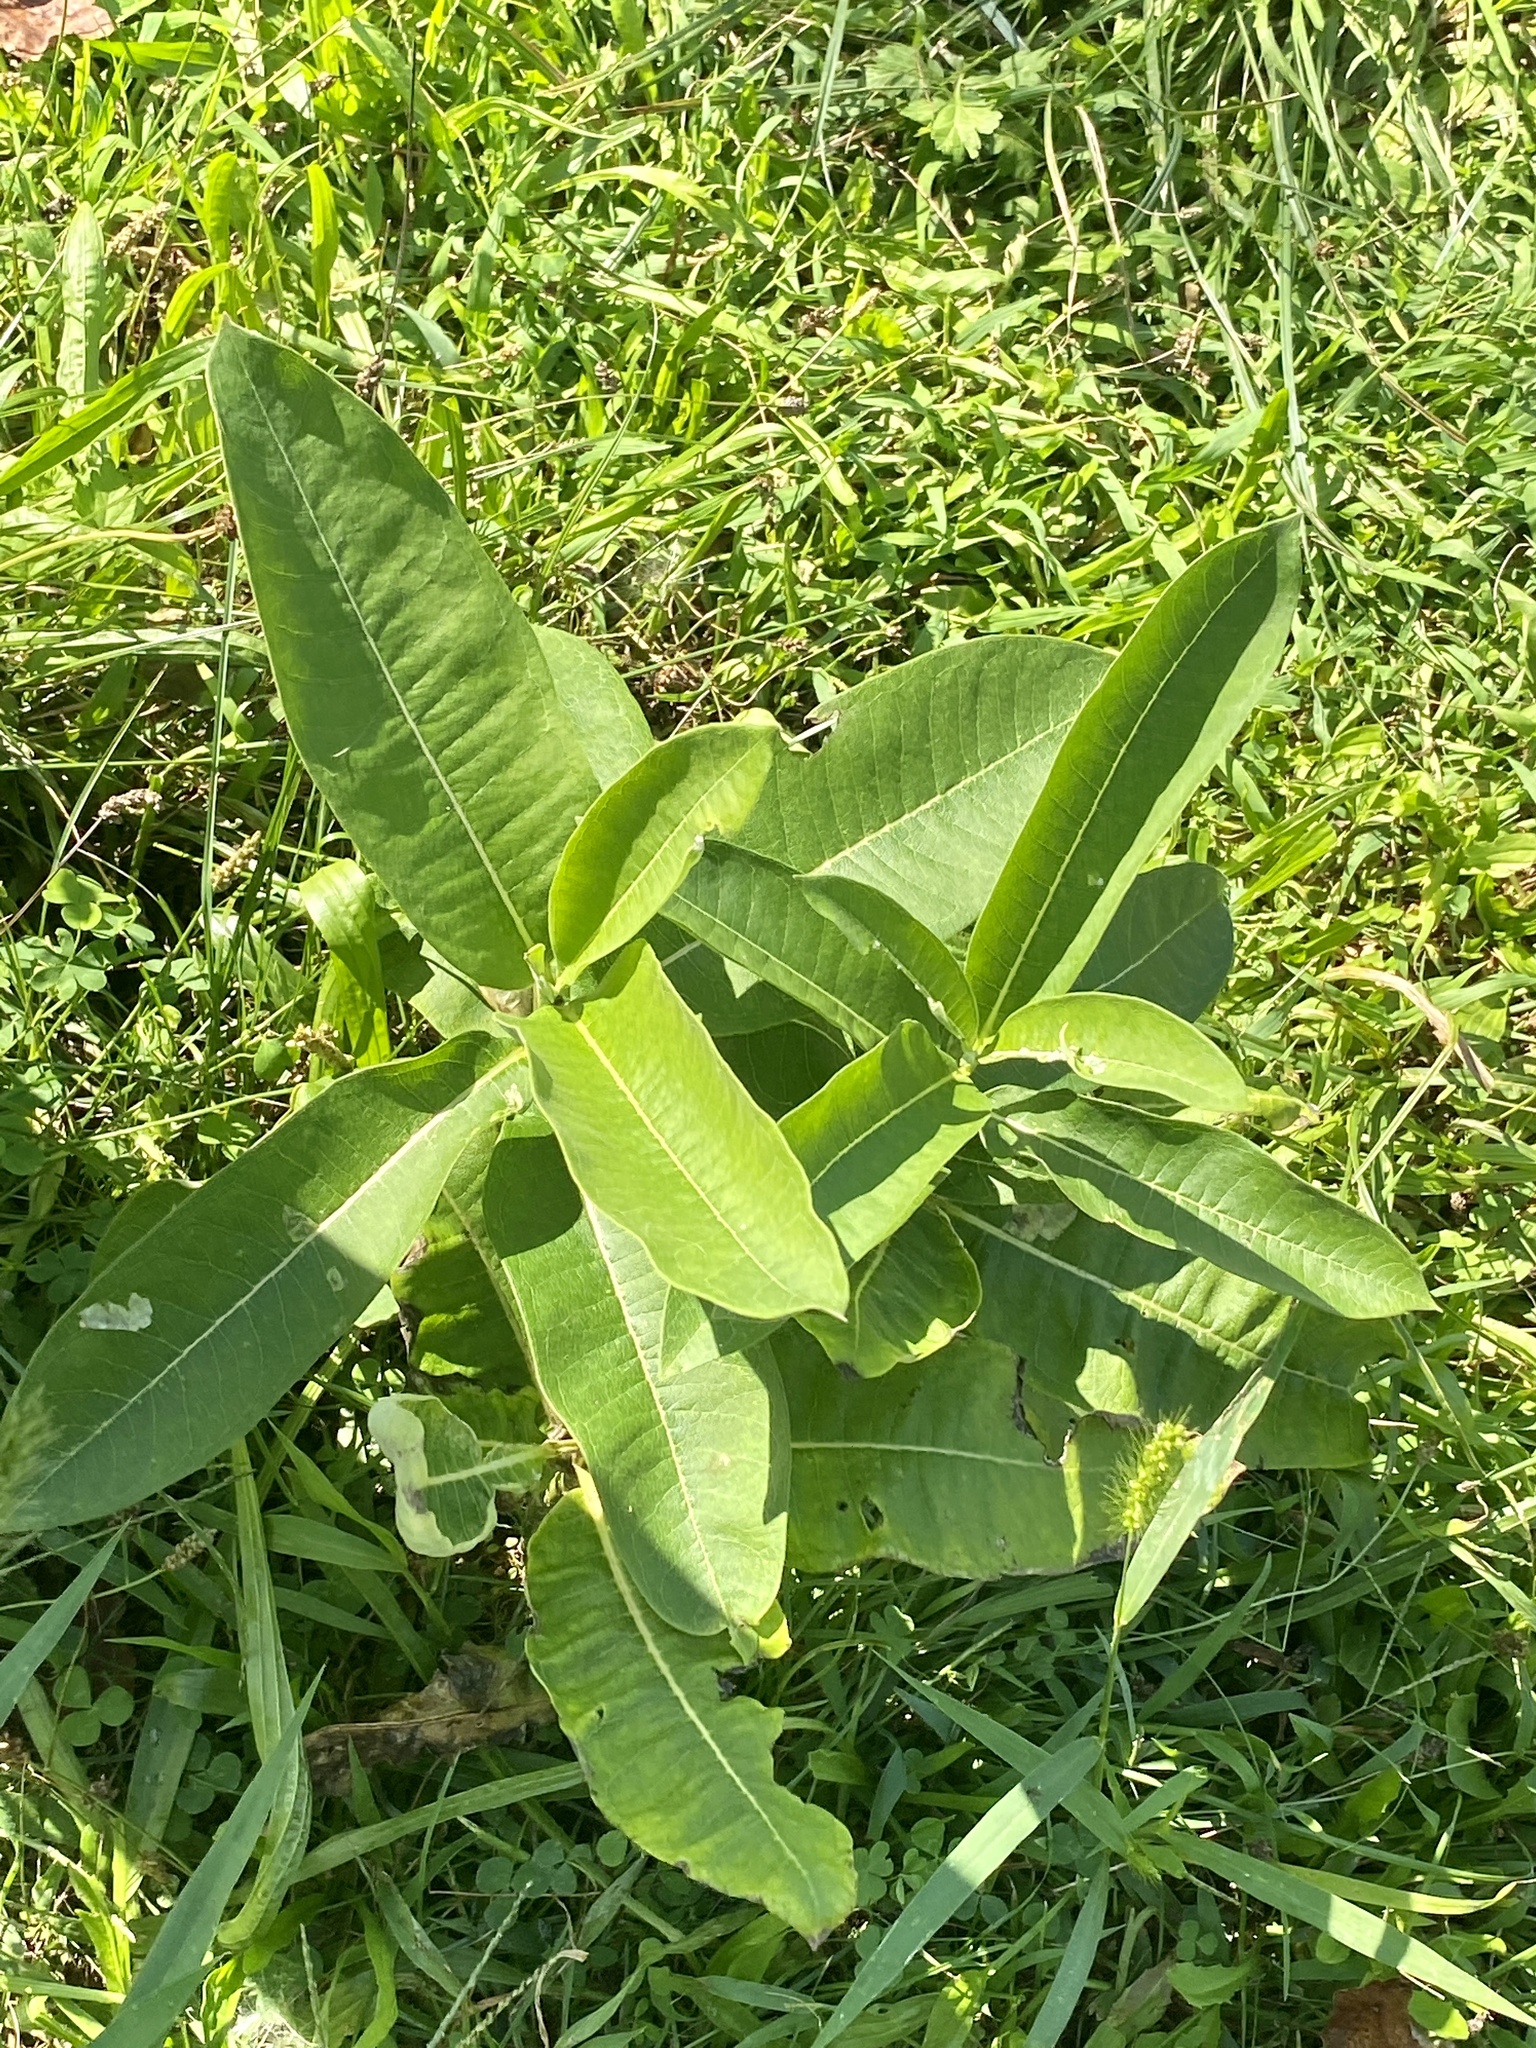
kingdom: Plantae
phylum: Tracheophyta
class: Magnoliopsida
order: Gentianales
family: Apocynaceae
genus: Asclepias
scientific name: Asclepias syriaca
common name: Common milkweed
